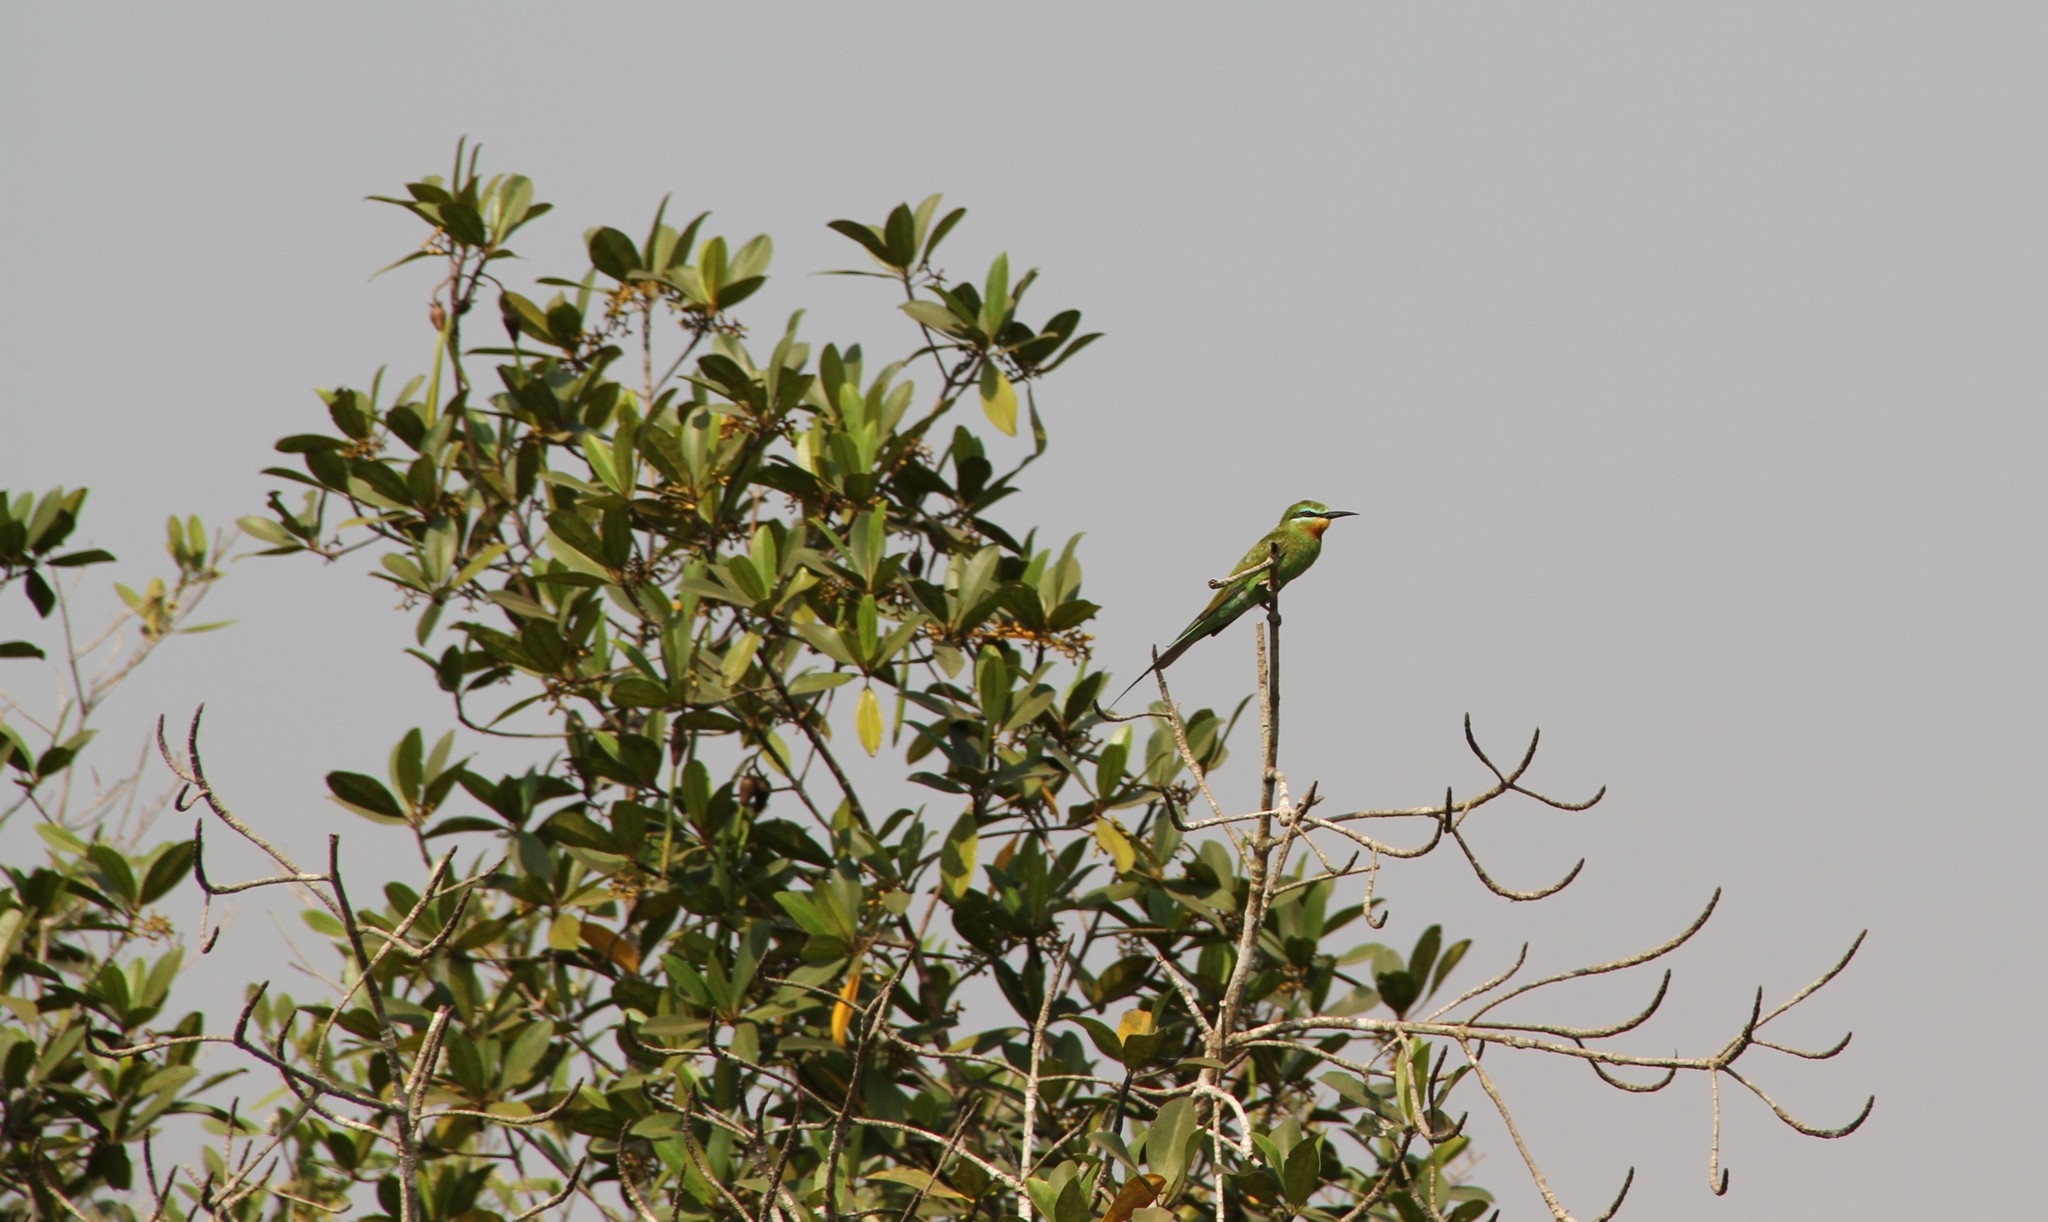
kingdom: Animalia
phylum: Chordata
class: Aves
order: Coraciiformes
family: Meropidae
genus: Merops
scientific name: Merops persicus
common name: Blue-cheeked bee-eater
